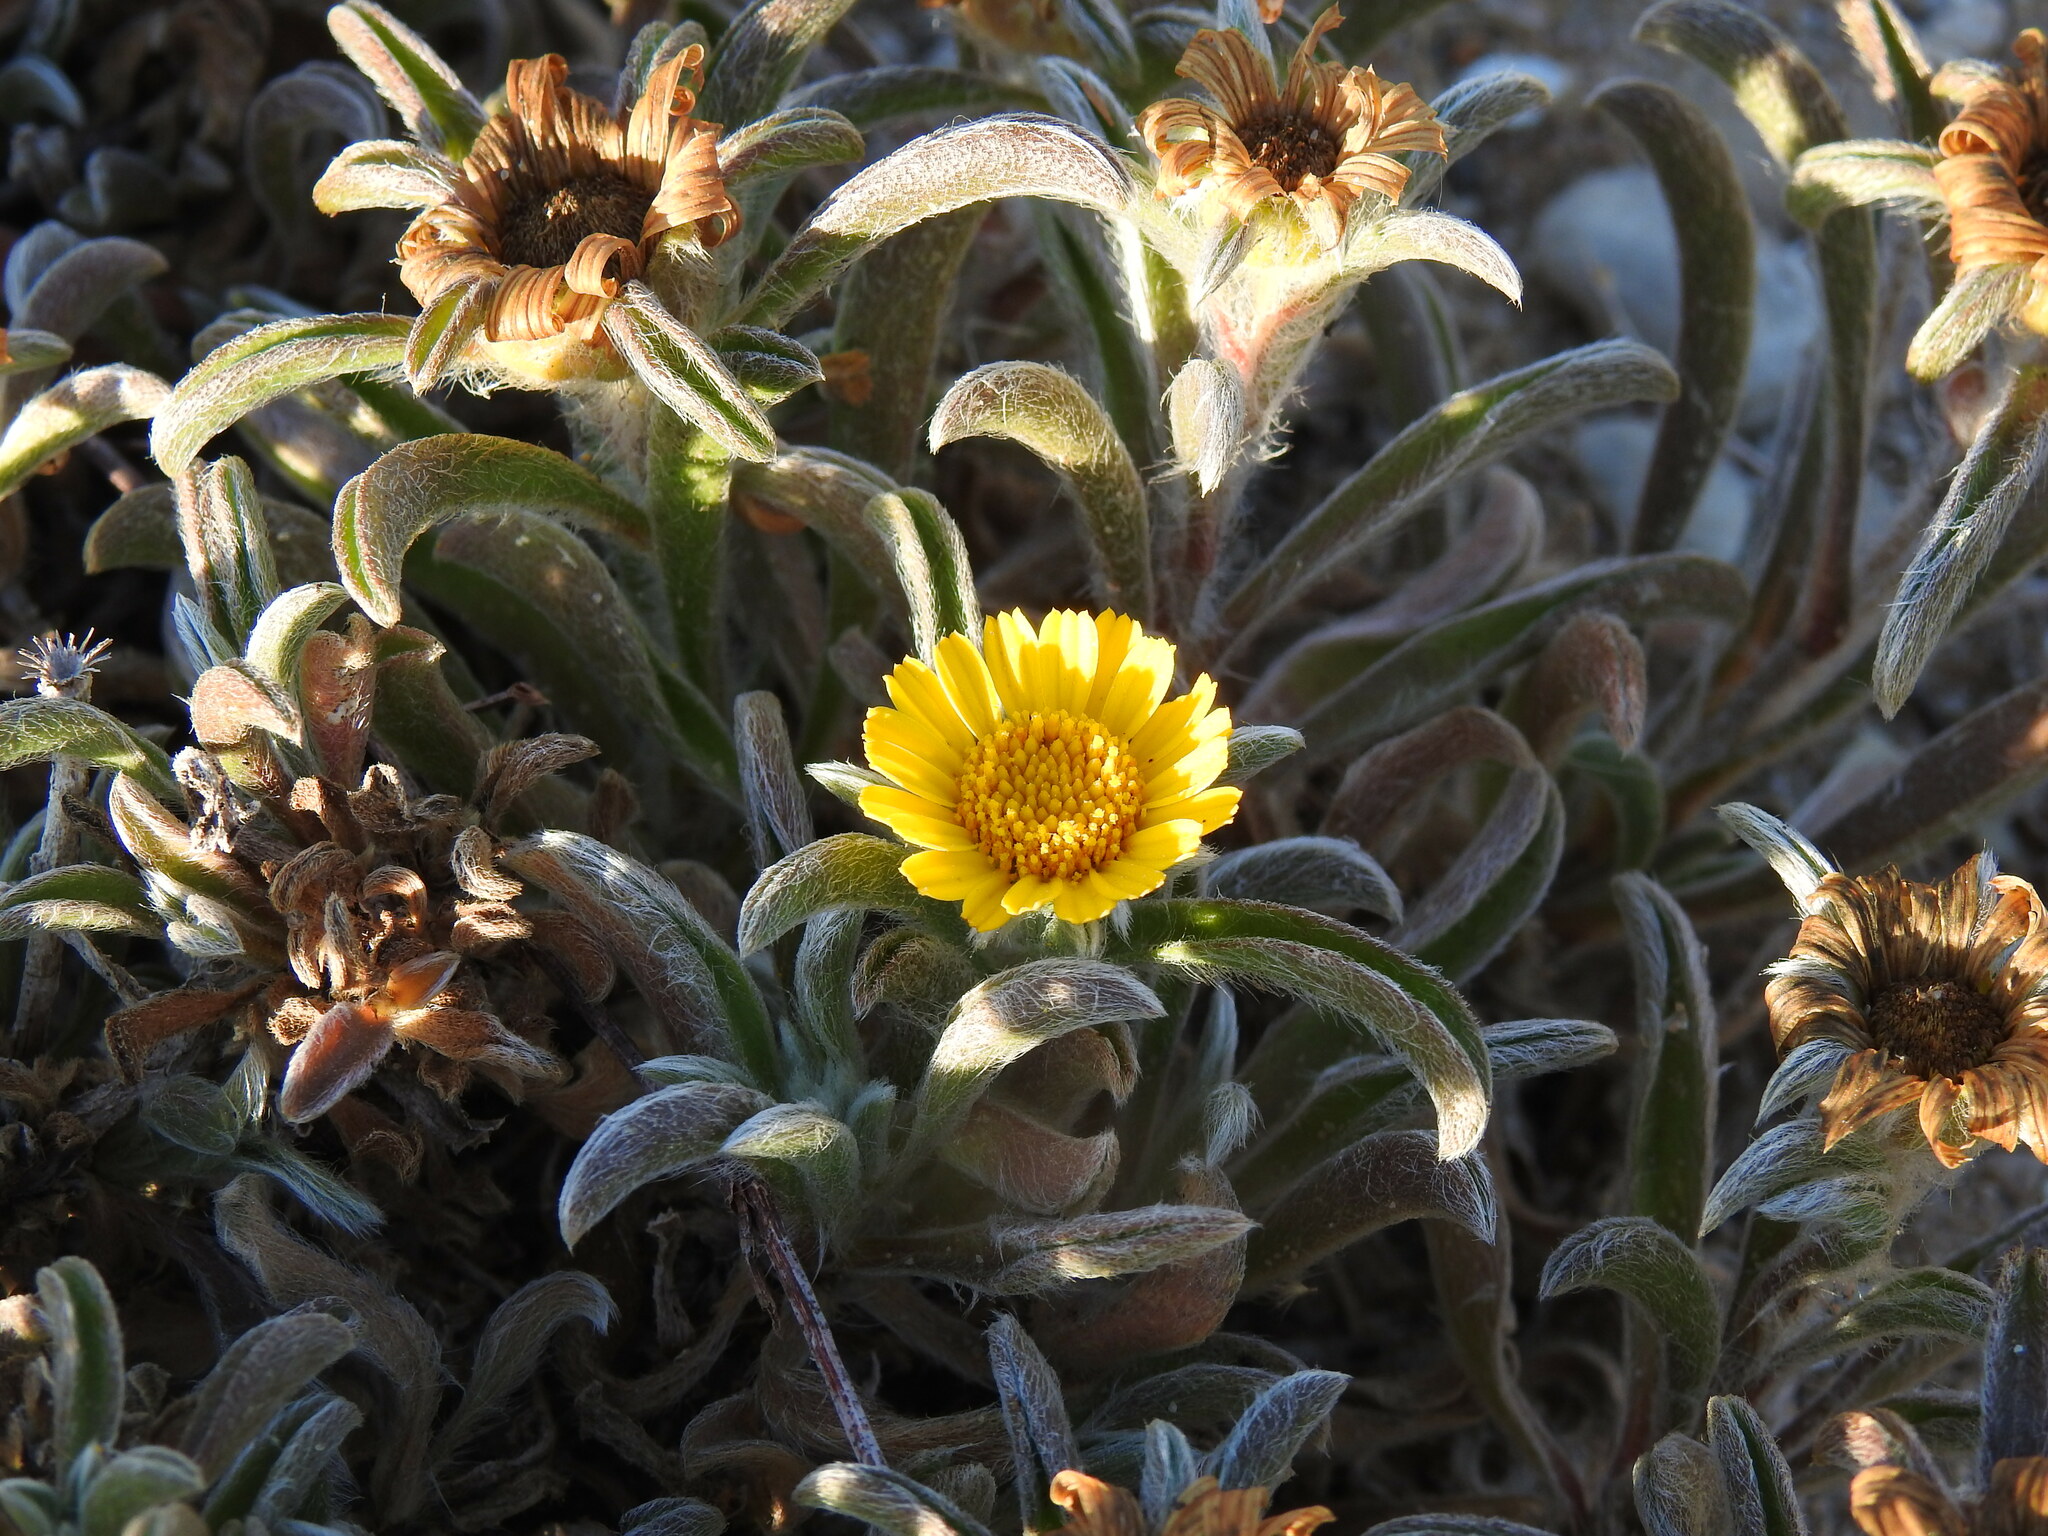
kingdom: Plantae
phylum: Tracheophyta
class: Magnoliopsida
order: Asterales
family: Asteraceae
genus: Pallenis
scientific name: Pallenis maritima
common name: Golden coin daisy
